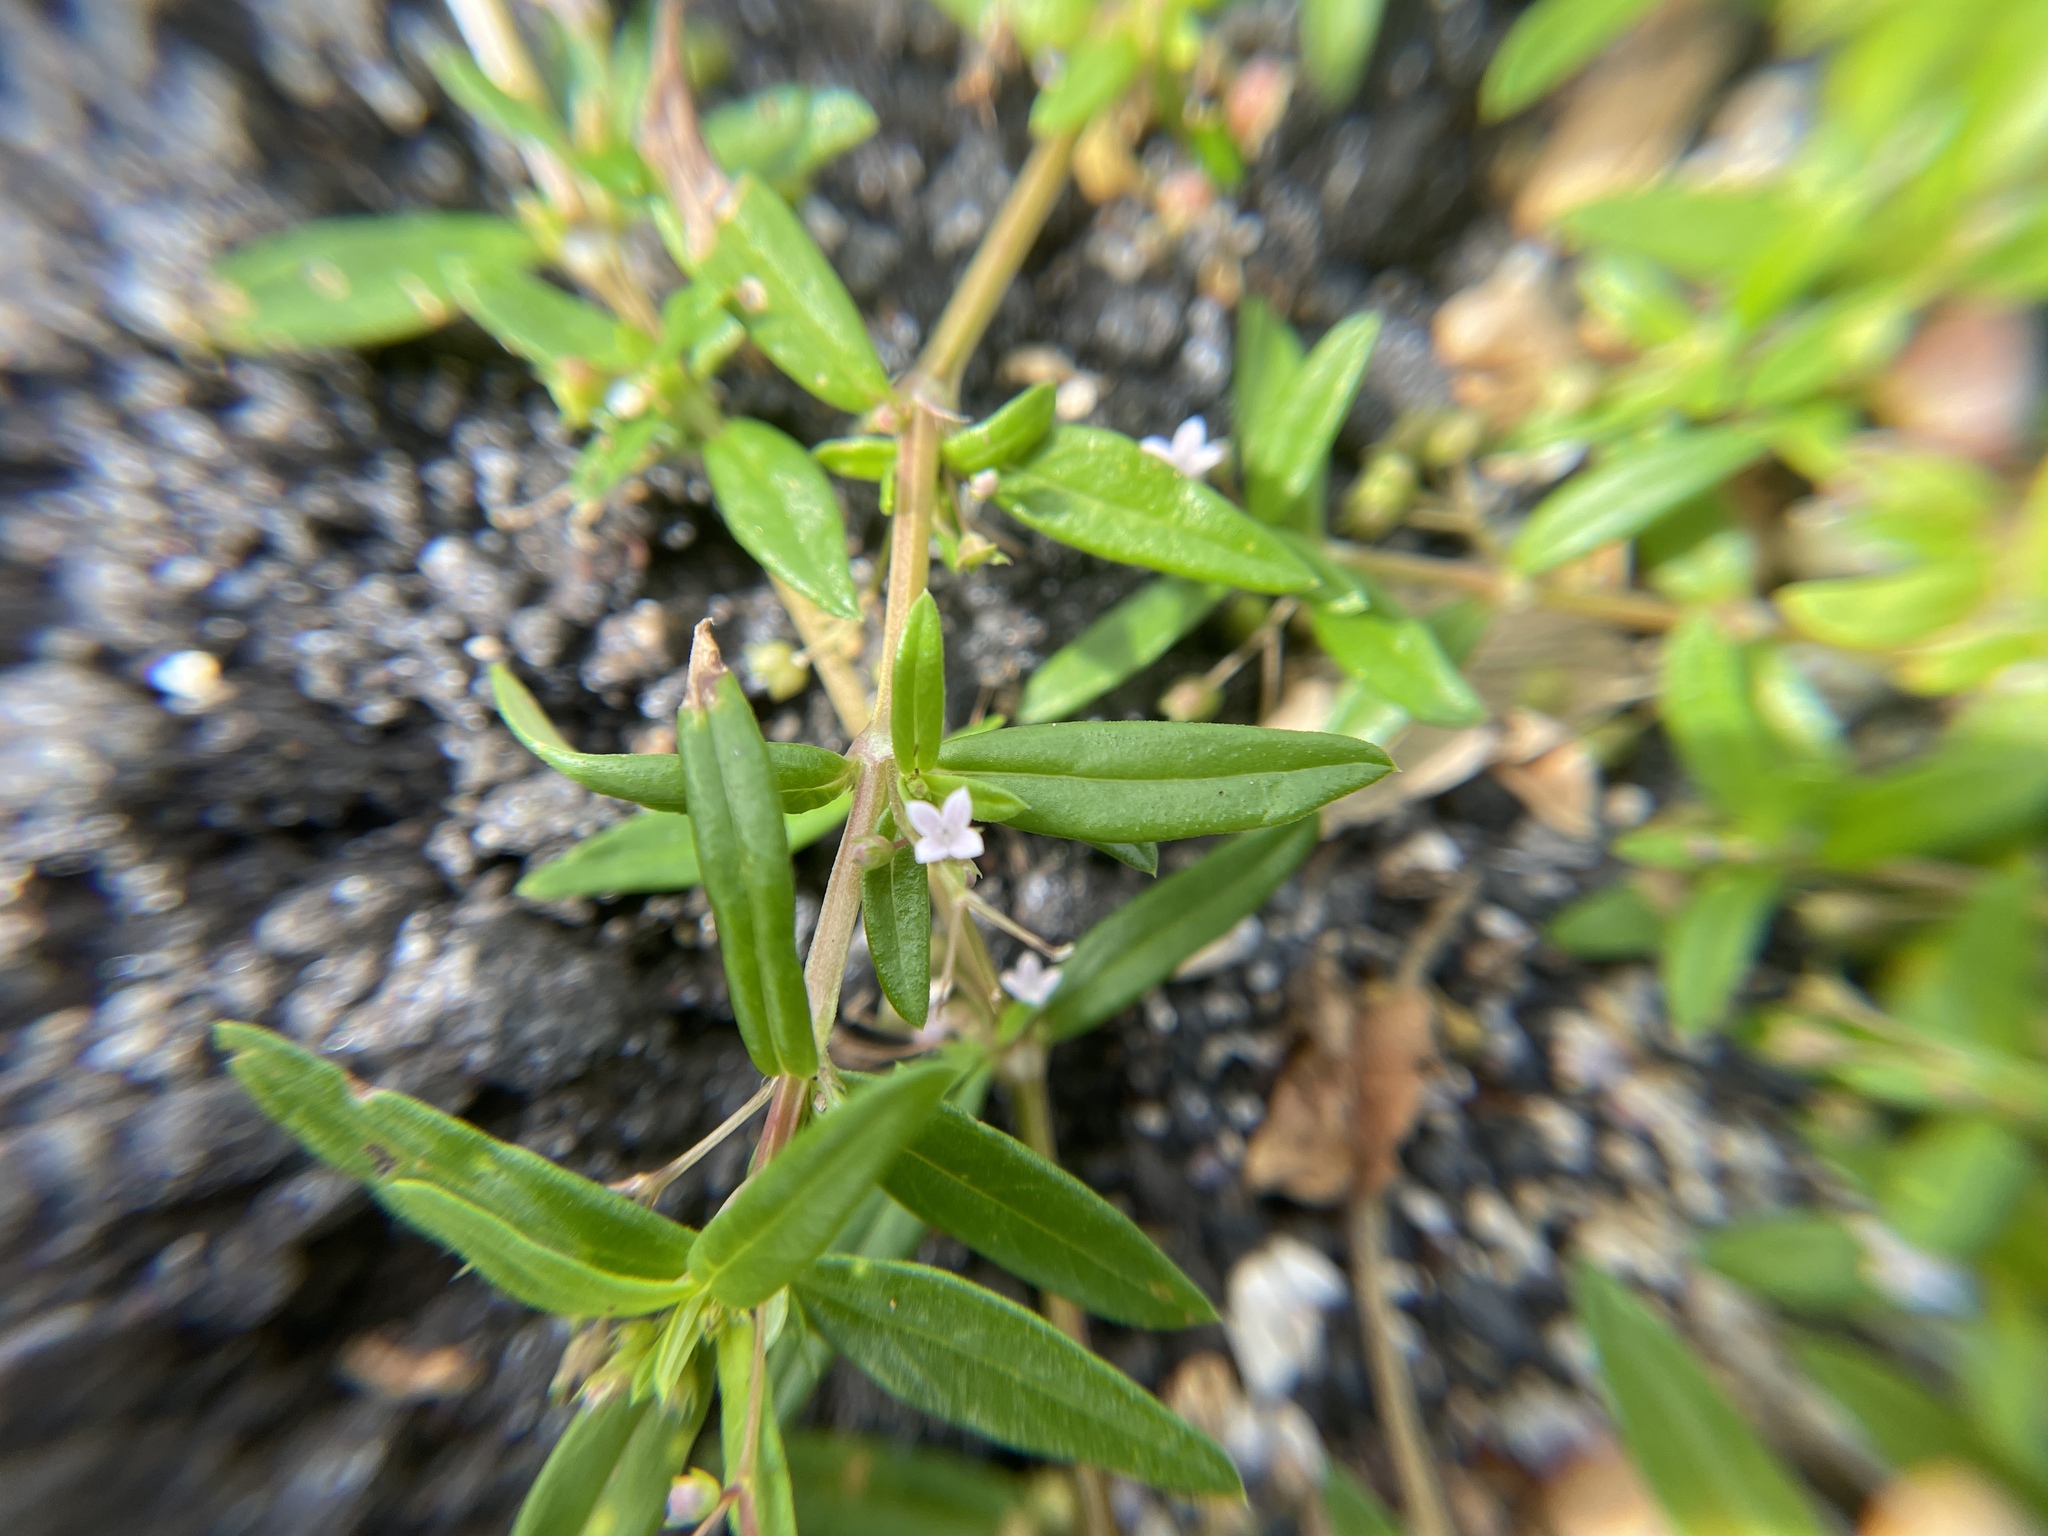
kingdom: Plantae
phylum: Tracheophyta
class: Magnoliopsida
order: Gentianales
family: Rubiaceae
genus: Oldenlandia
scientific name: Oldenlandia corymbosa
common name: Flat-top mille graines
